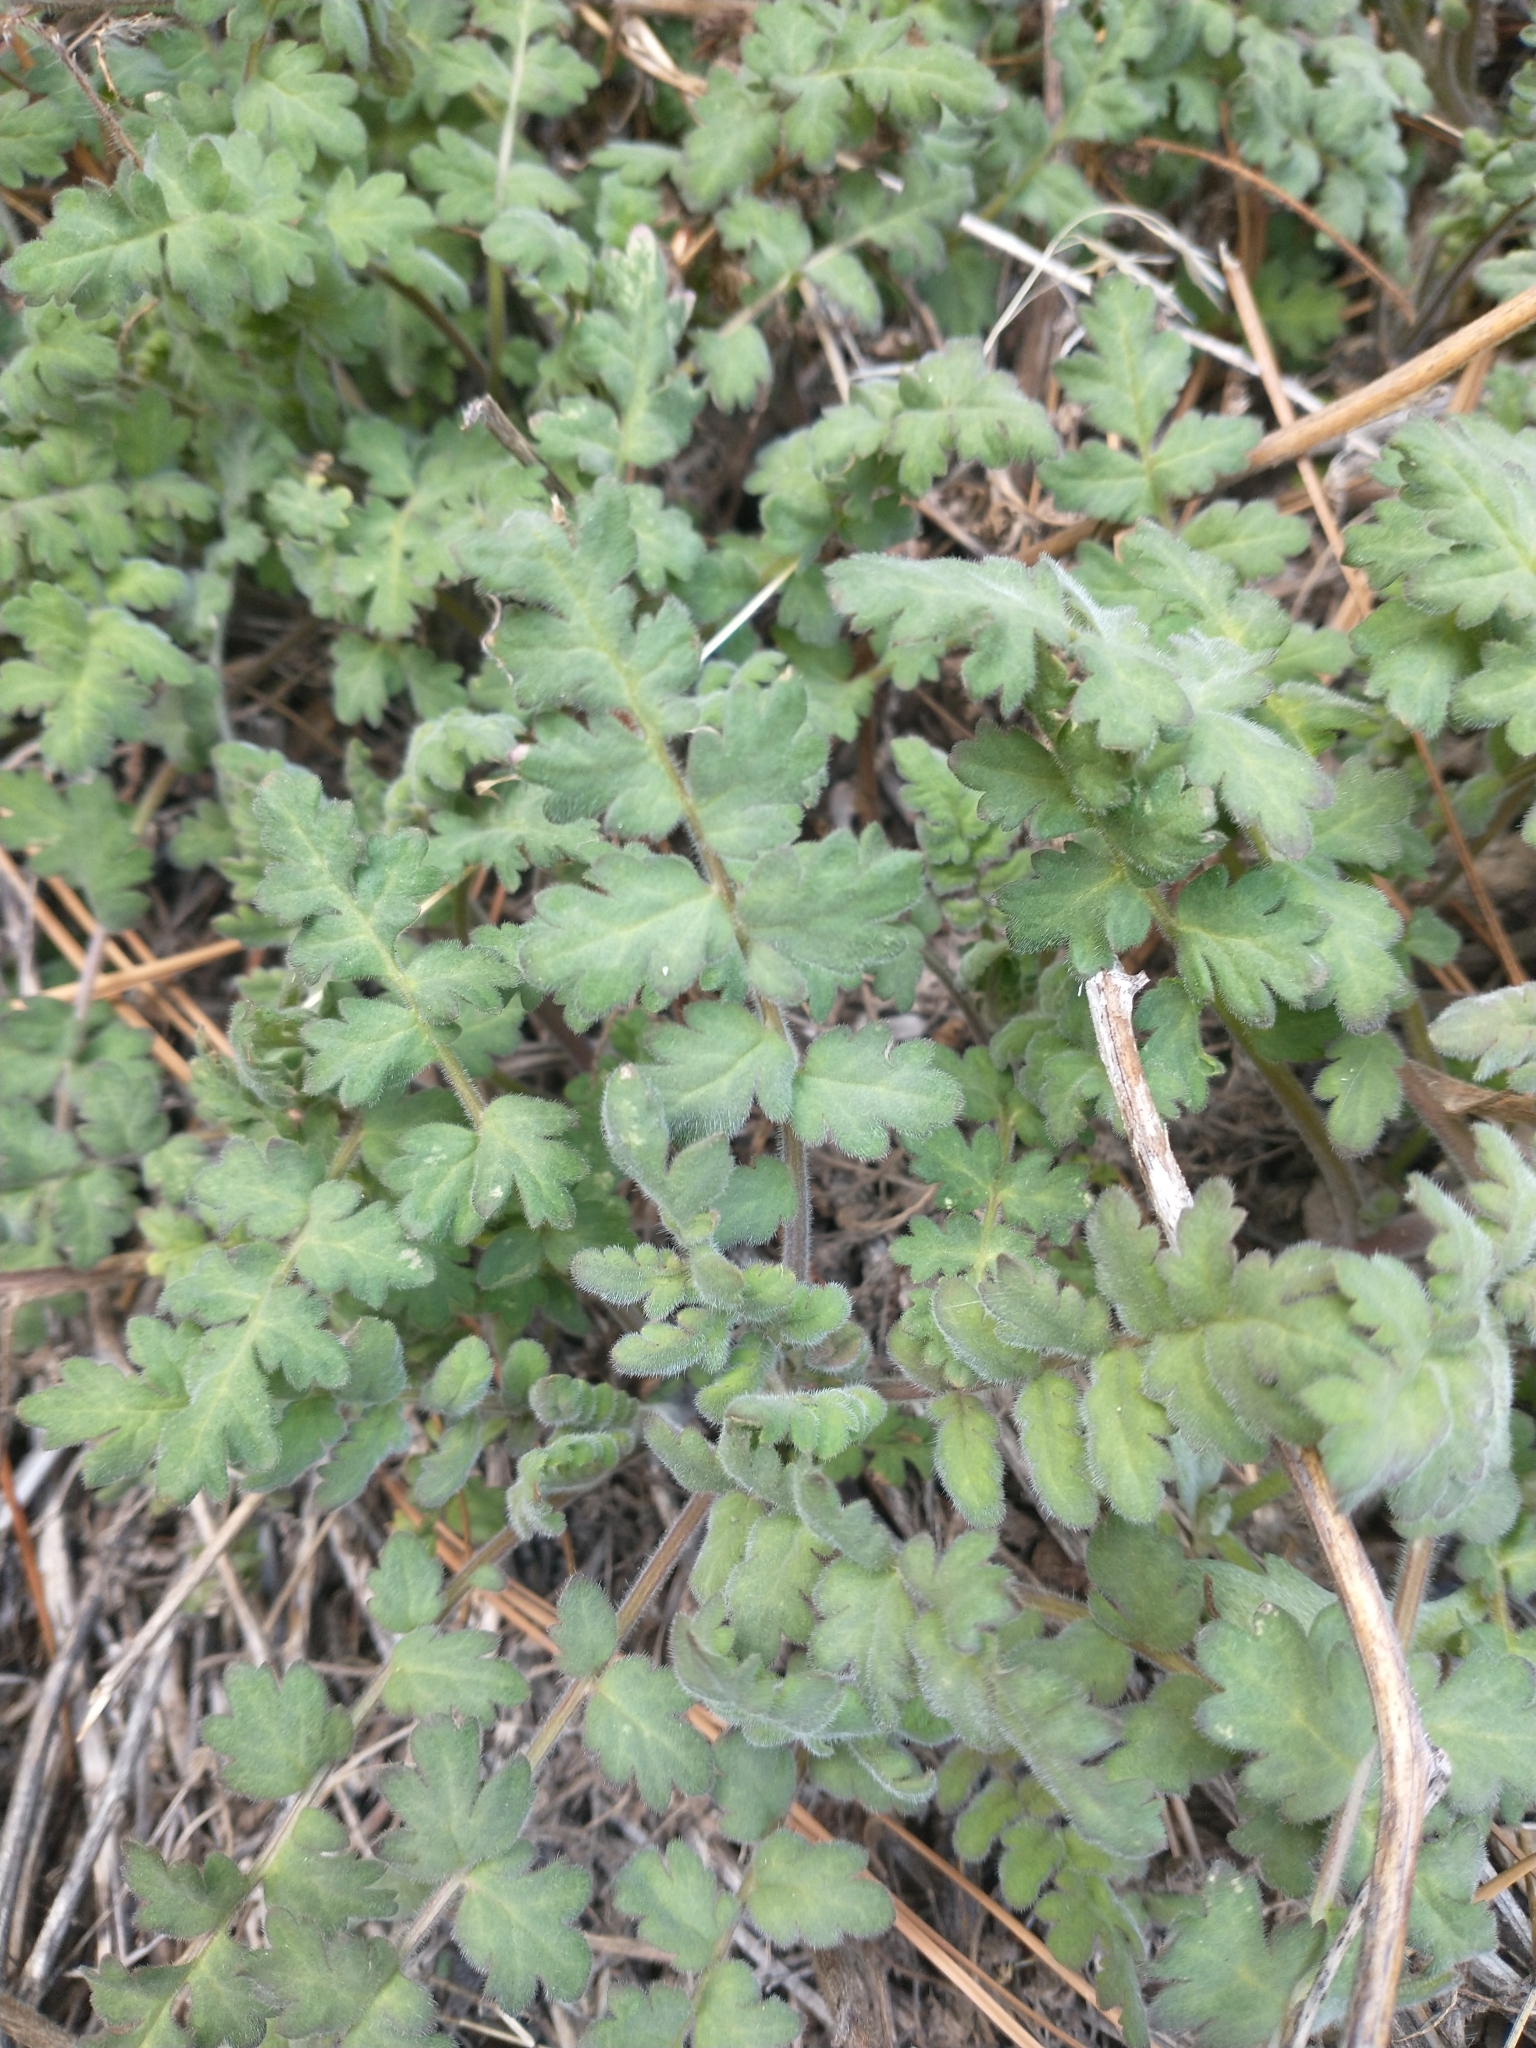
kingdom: Plantae
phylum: Tracheophyta
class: Magnoliopsida
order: Boraginales
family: Hydrophyllaceae
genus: Phacelia
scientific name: Phacelia ramosissima
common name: Branching phacelia
